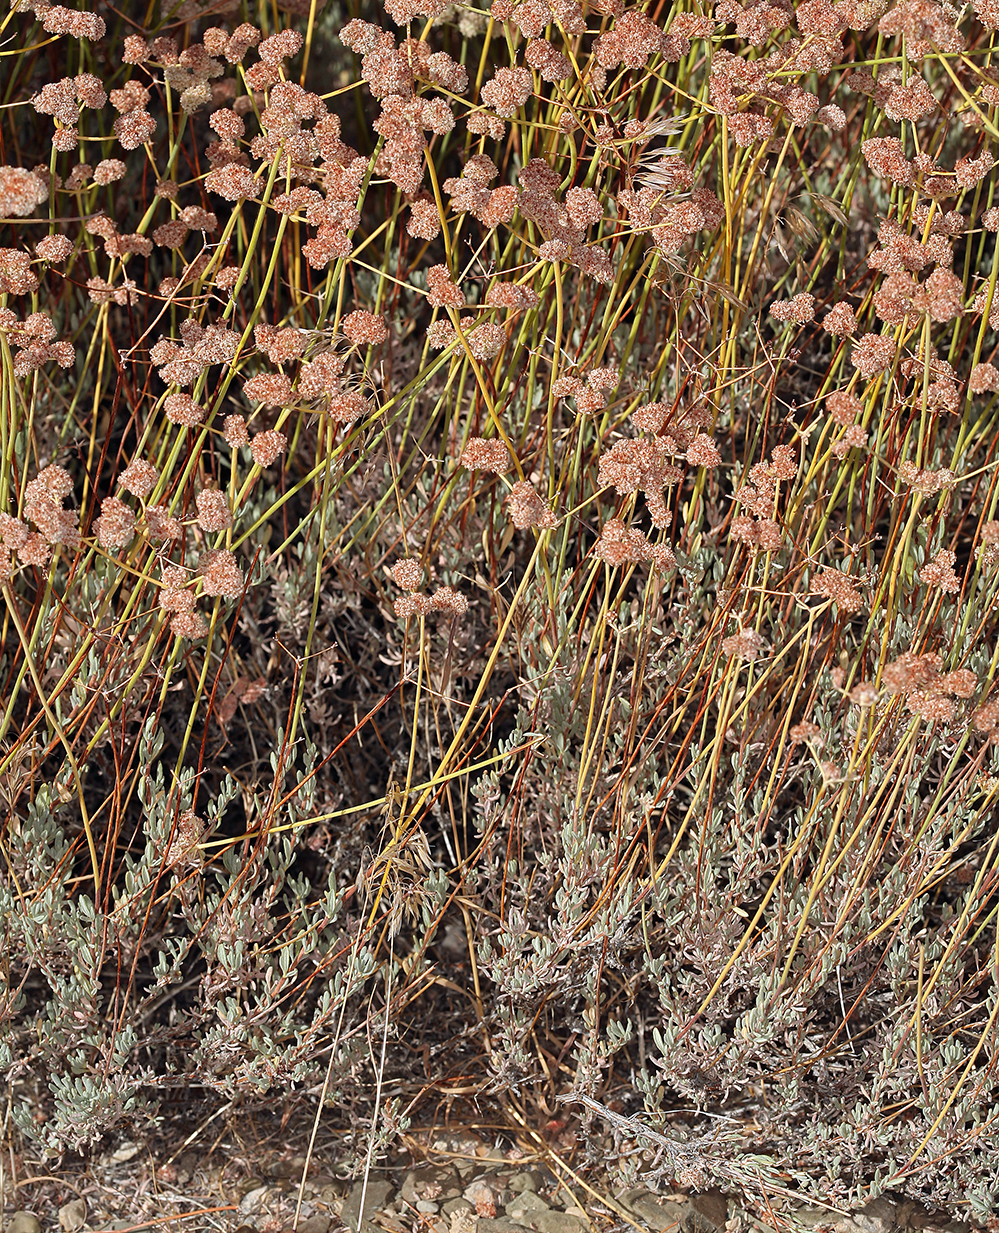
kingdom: Plantae
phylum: Tracheophyta
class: Magnoliopsida
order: Caryophyllales
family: Polygonaceae
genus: Eriogonum
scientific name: Eriogonum fasciculatum
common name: California wild buckwheat
